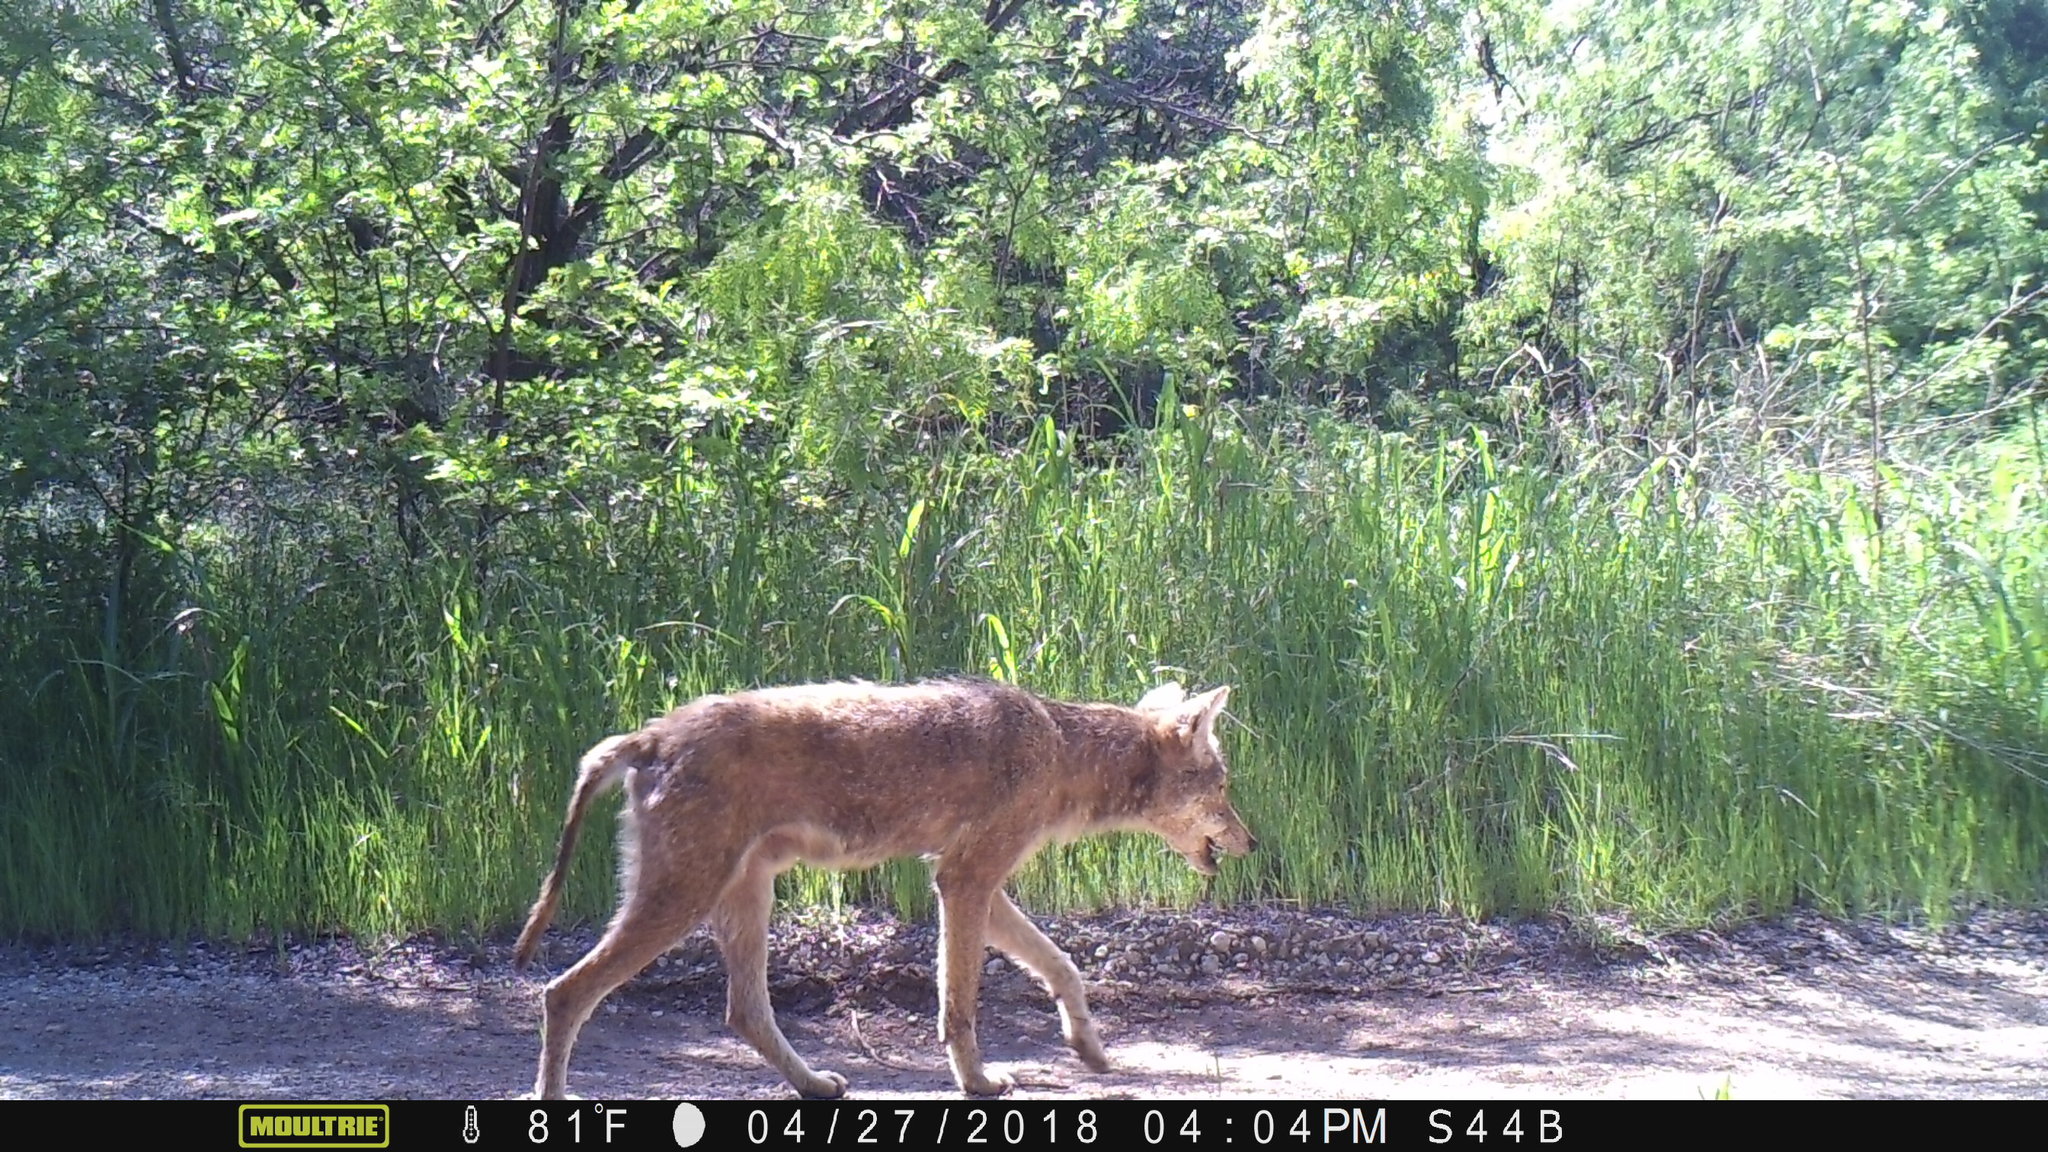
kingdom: Animalia
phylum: Chordata
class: Mammalia
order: Carnivora
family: Canidae
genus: Canis
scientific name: Canis latrans
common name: Coyote
